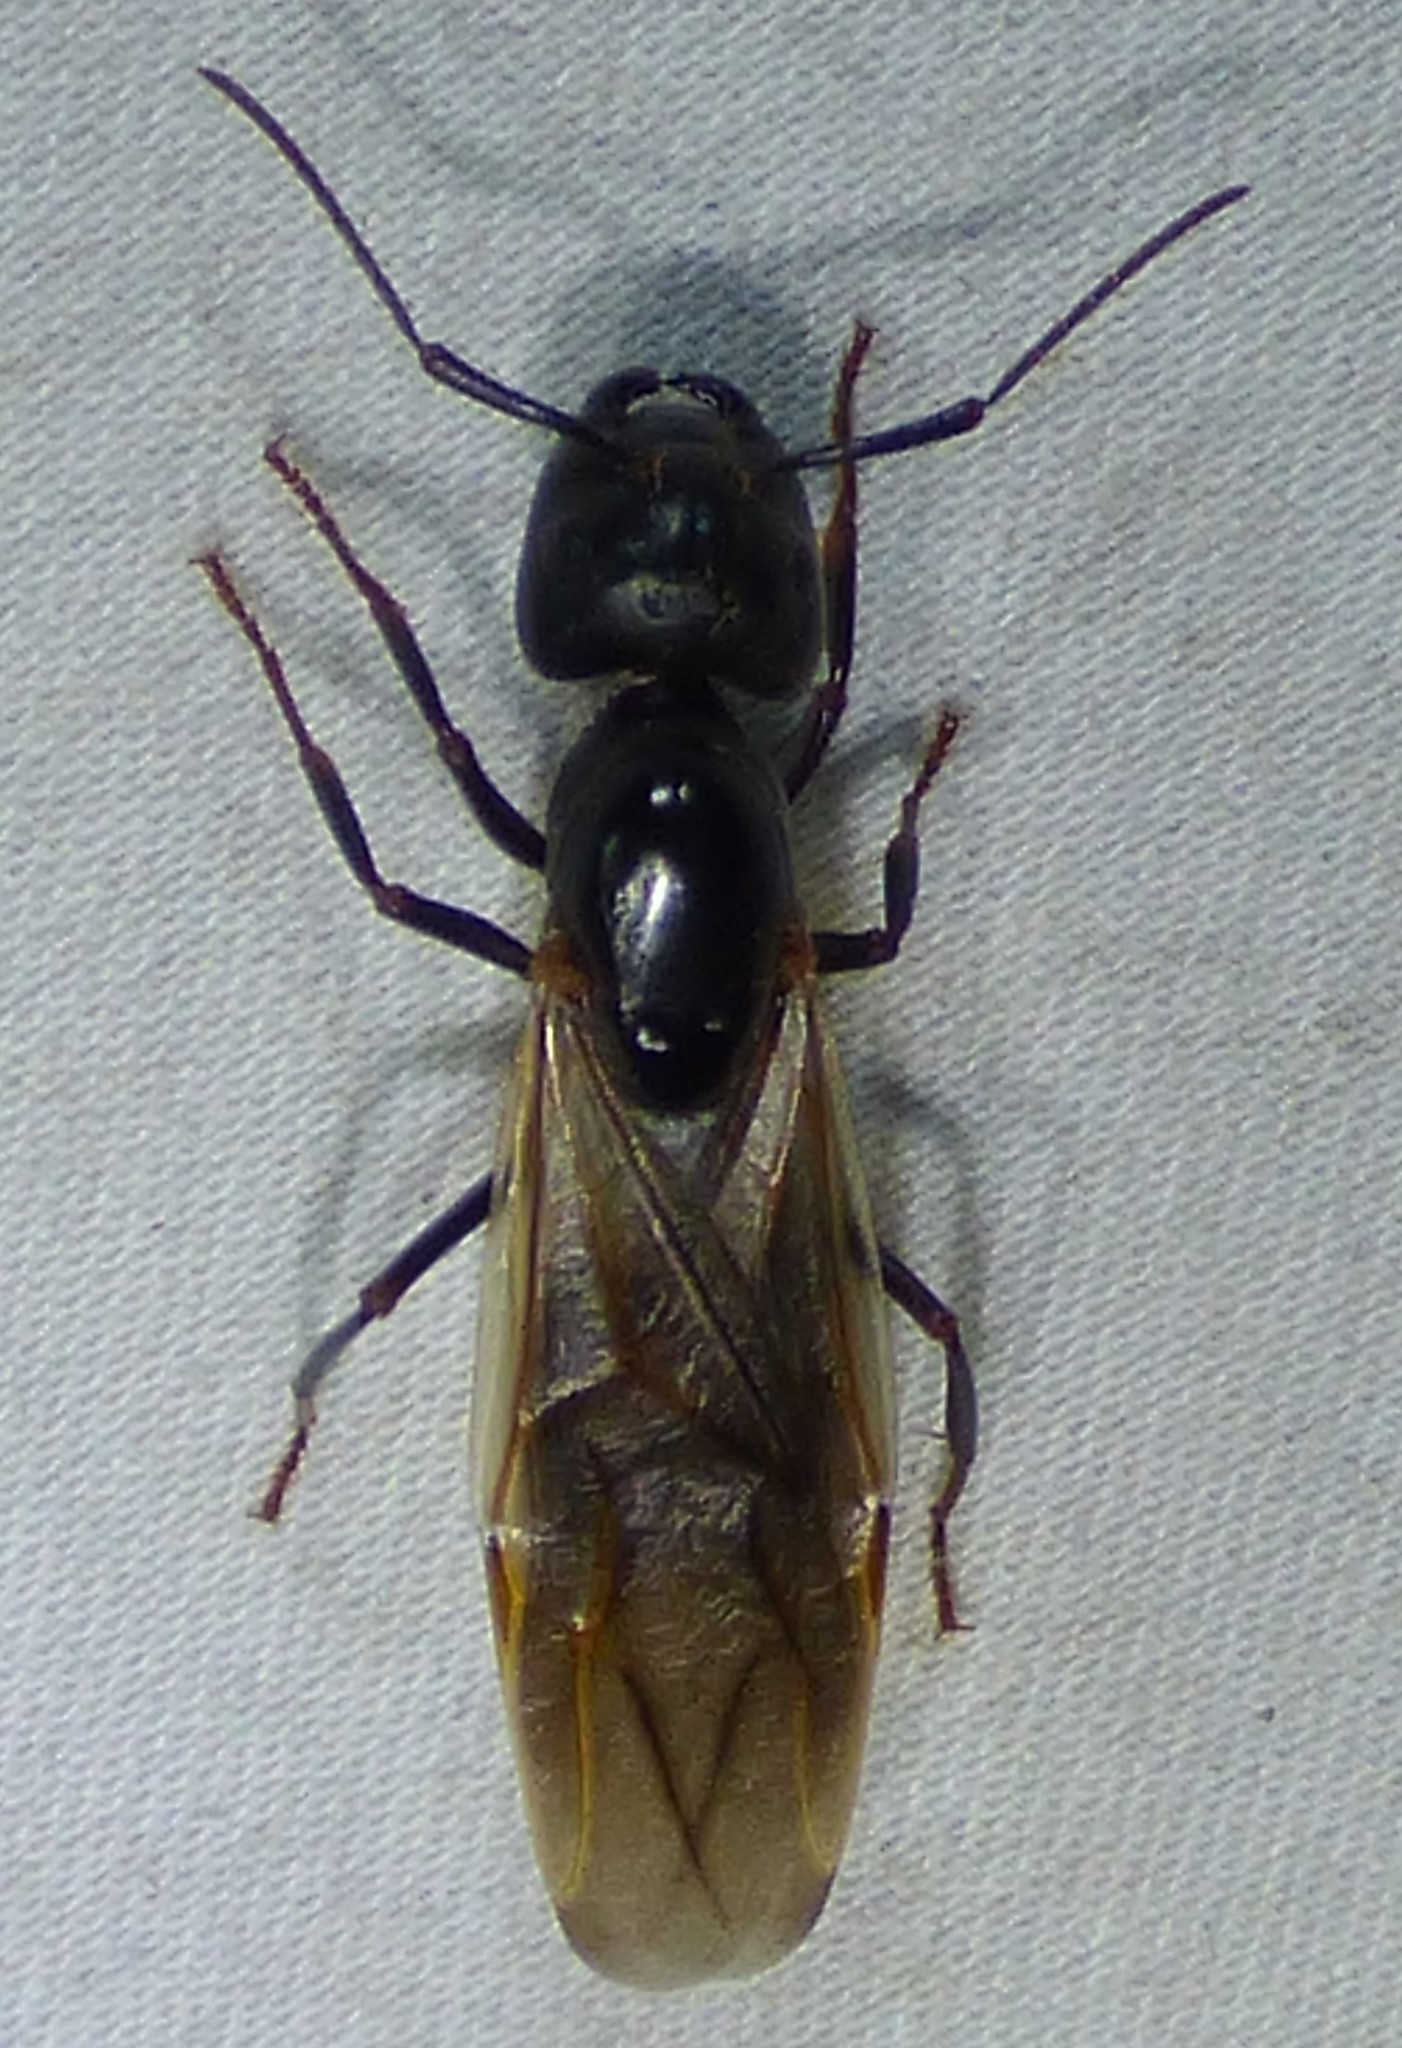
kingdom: Animalia
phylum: Arthropoda
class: Insecta
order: Hymenoptera
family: Formicidae
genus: Camponotus
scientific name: Camponotus pennsylvanicus
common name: Black carpenter ant
